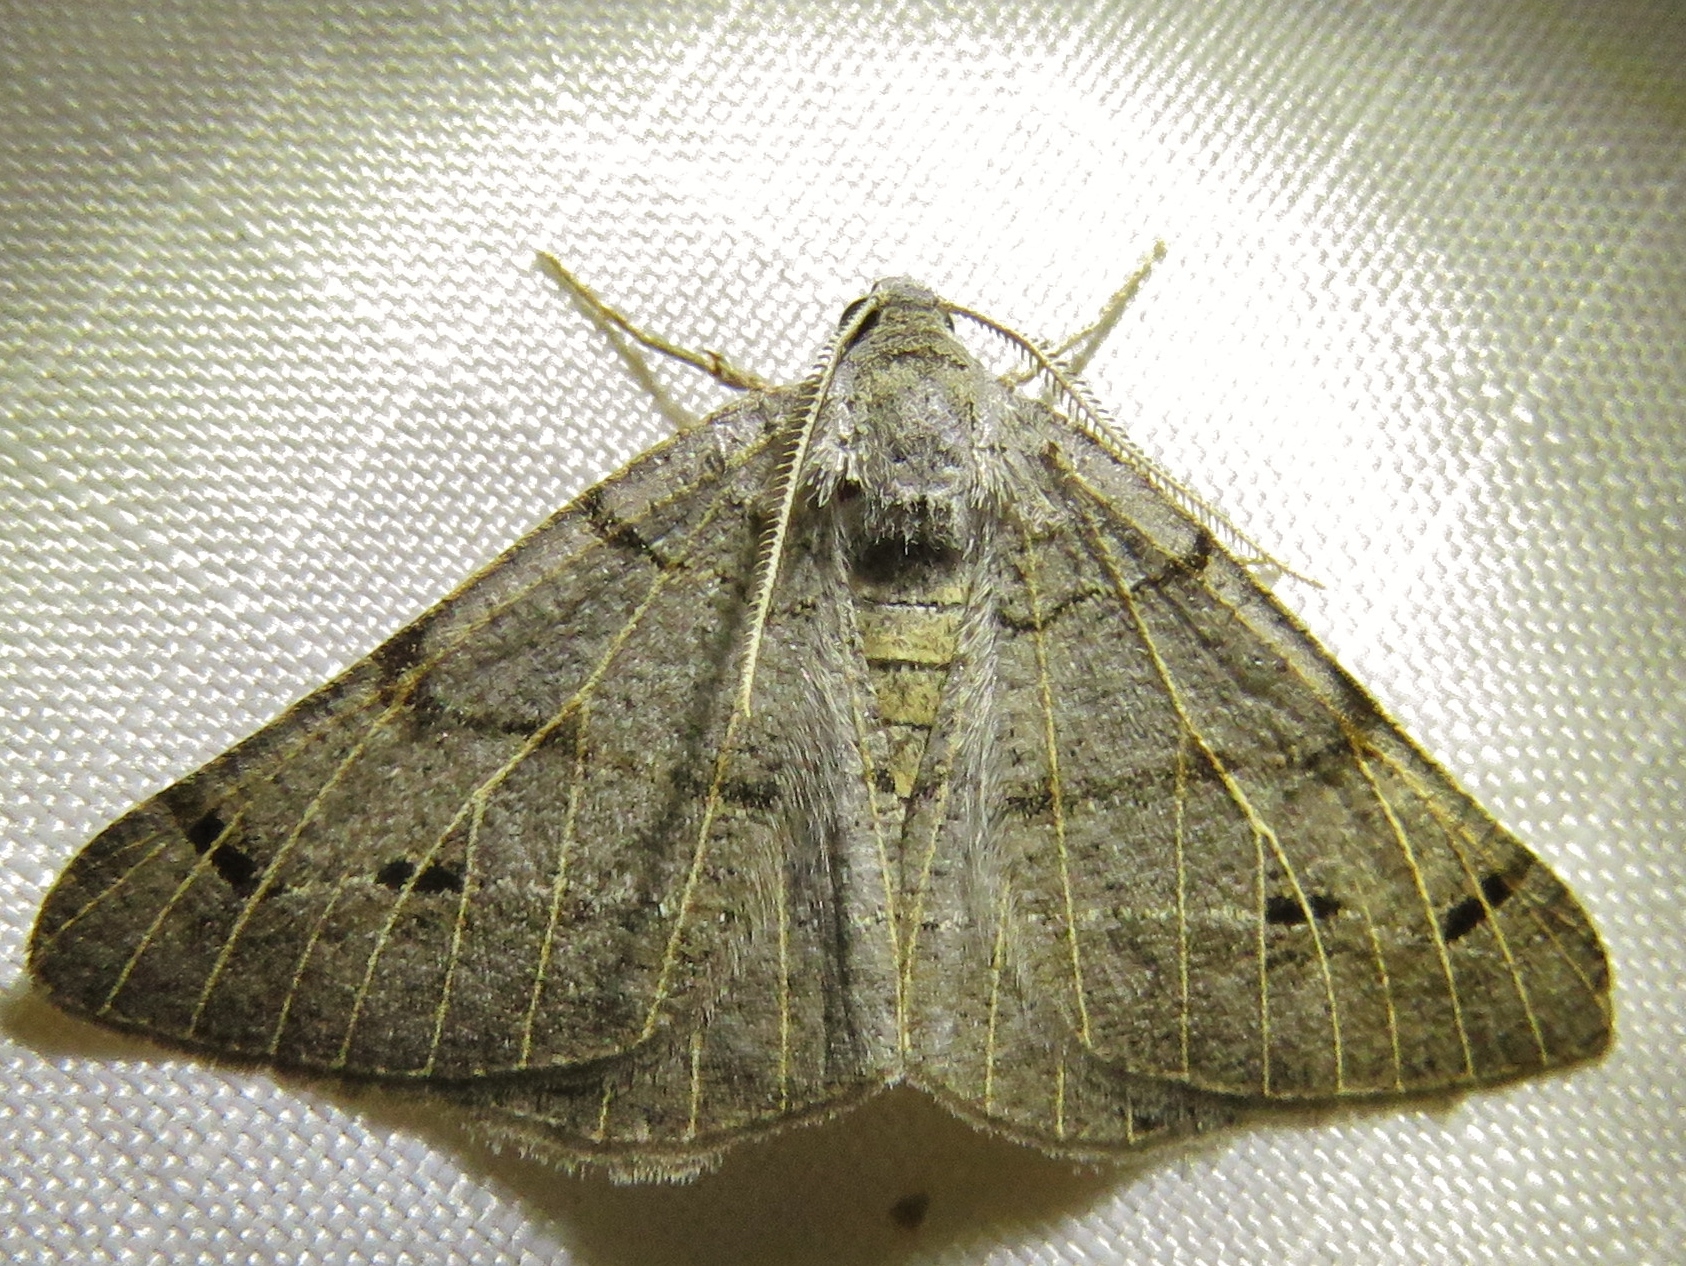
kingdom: Animalia
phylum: Arthropoda
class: Insecta
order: Lepidoptera
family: Geometridae
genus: Isturgia
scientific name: Isturgia dislocaria
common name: Pale-viened enconista
